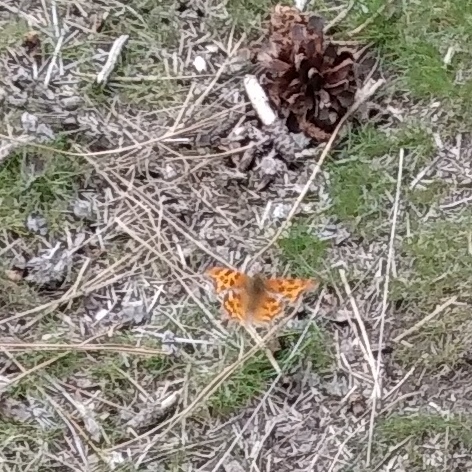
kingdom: Animalia
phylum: Arthropoda
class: Insecta
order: Lepidoptera
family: Nymphalidae
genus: Polygonia
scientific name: Polygonia satyrus
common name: Satyr angle wing
